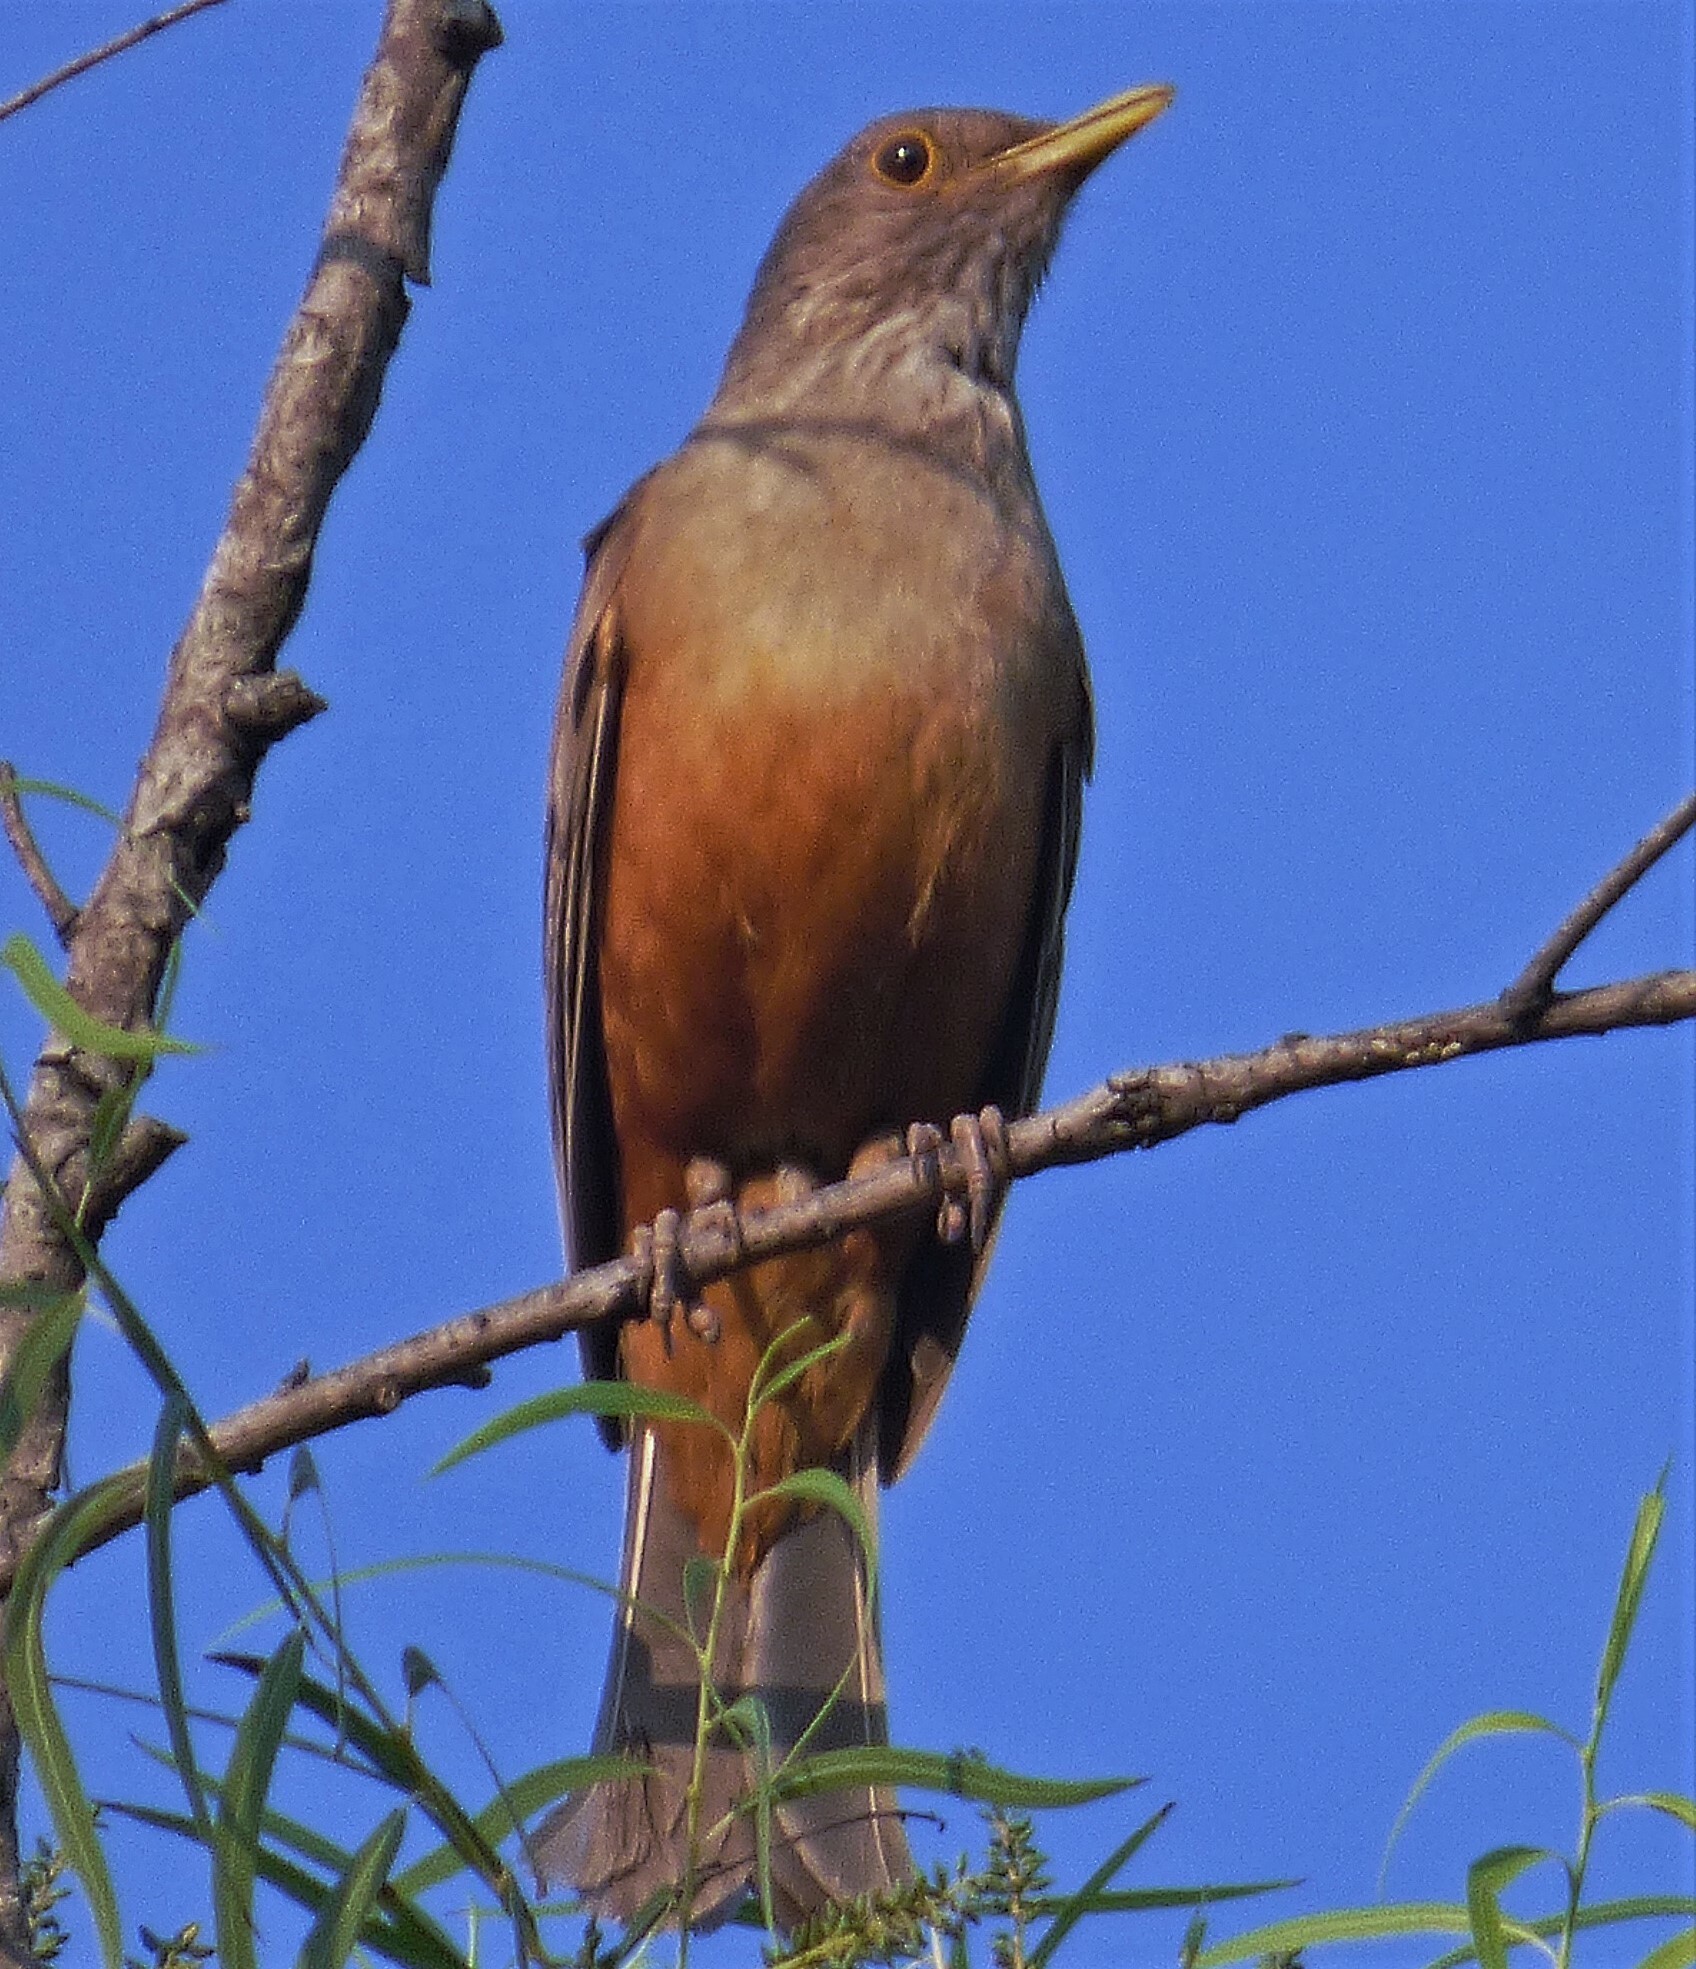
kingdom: Animalia
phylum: Chordata
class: Aves
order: Passeriformes
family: Turdidae
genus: Turdus
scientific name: Turdus rufiventris
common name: Rufous-bellied thrush
